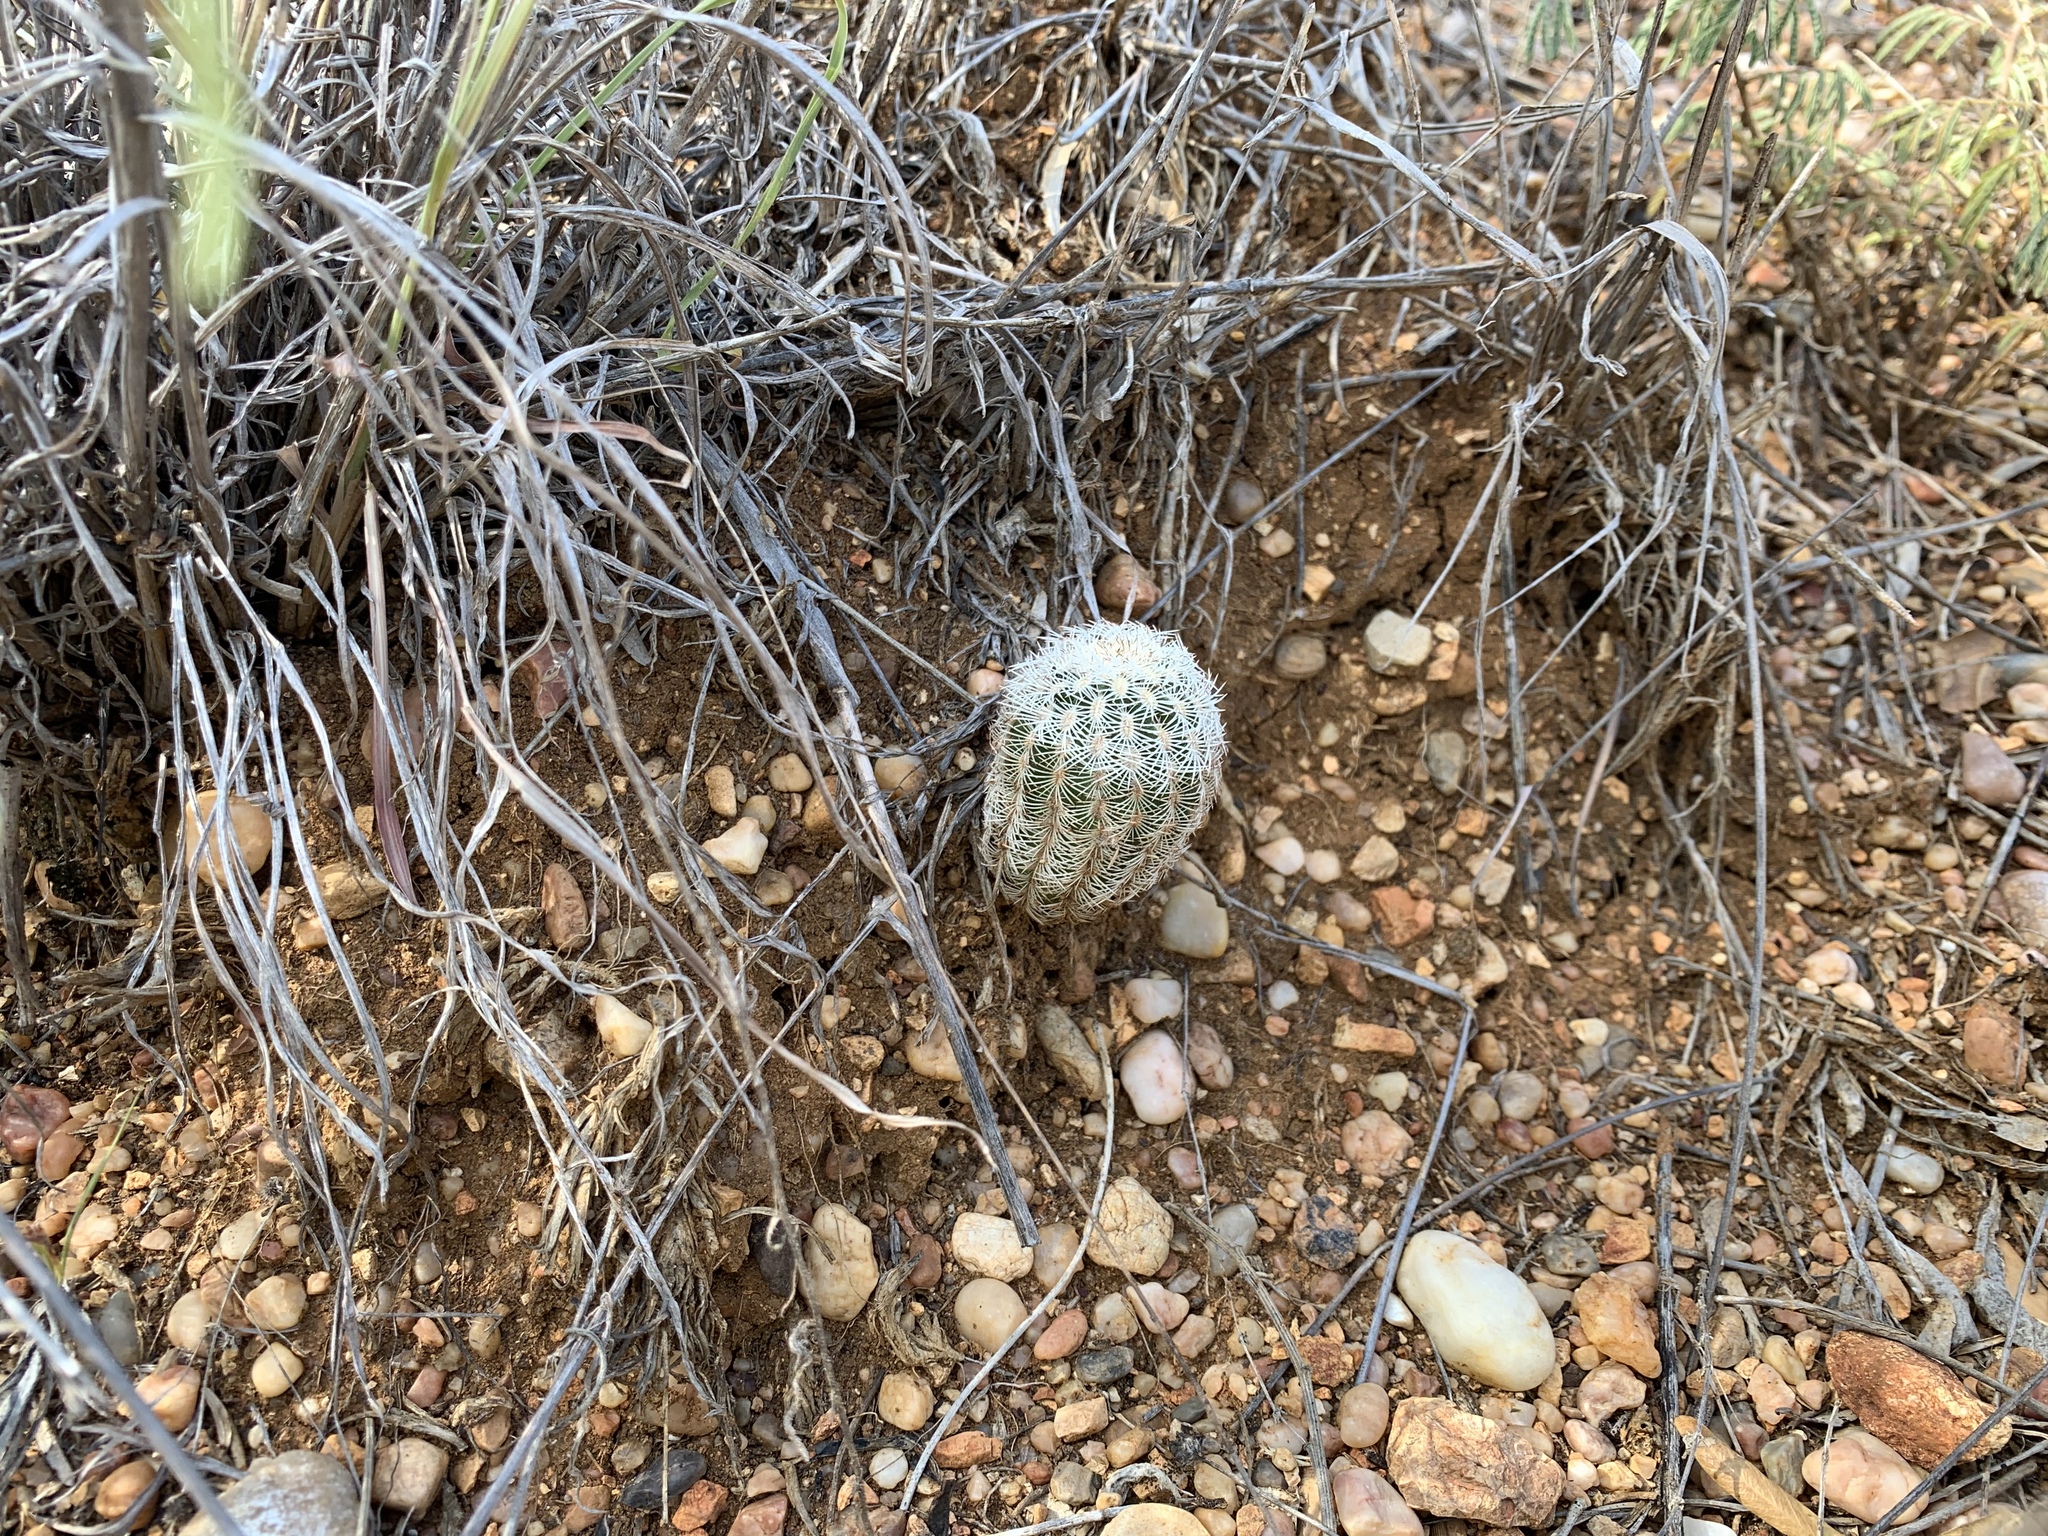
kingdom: Plantae
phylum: Tracheophyta
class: Magnoliopsida
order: Caryophyllales
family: Cactaceae
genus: Echinocereus
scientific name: Echinocereus reichenbachii
